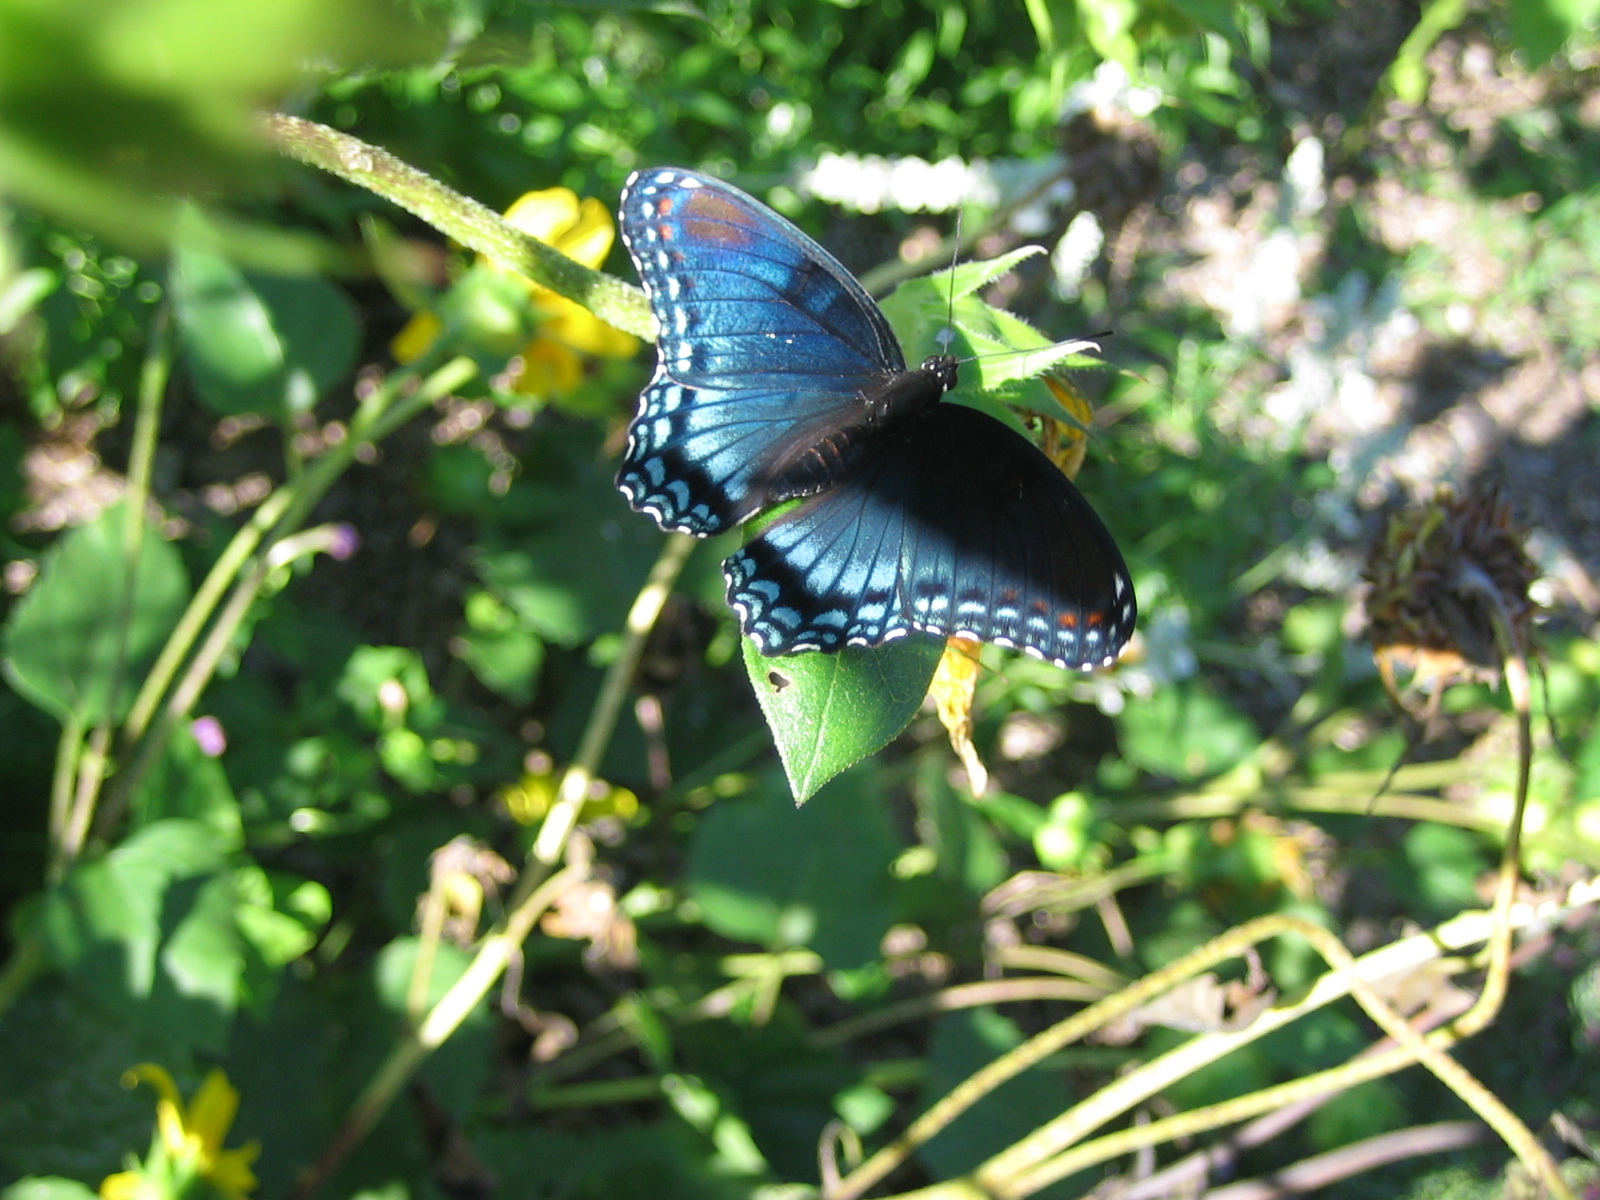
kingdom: Animalia
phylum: Arthropoda
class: Insecta
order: Lepidoptera
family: Nymphalidae
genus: Limenitis
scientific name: Limenitis astyanax
